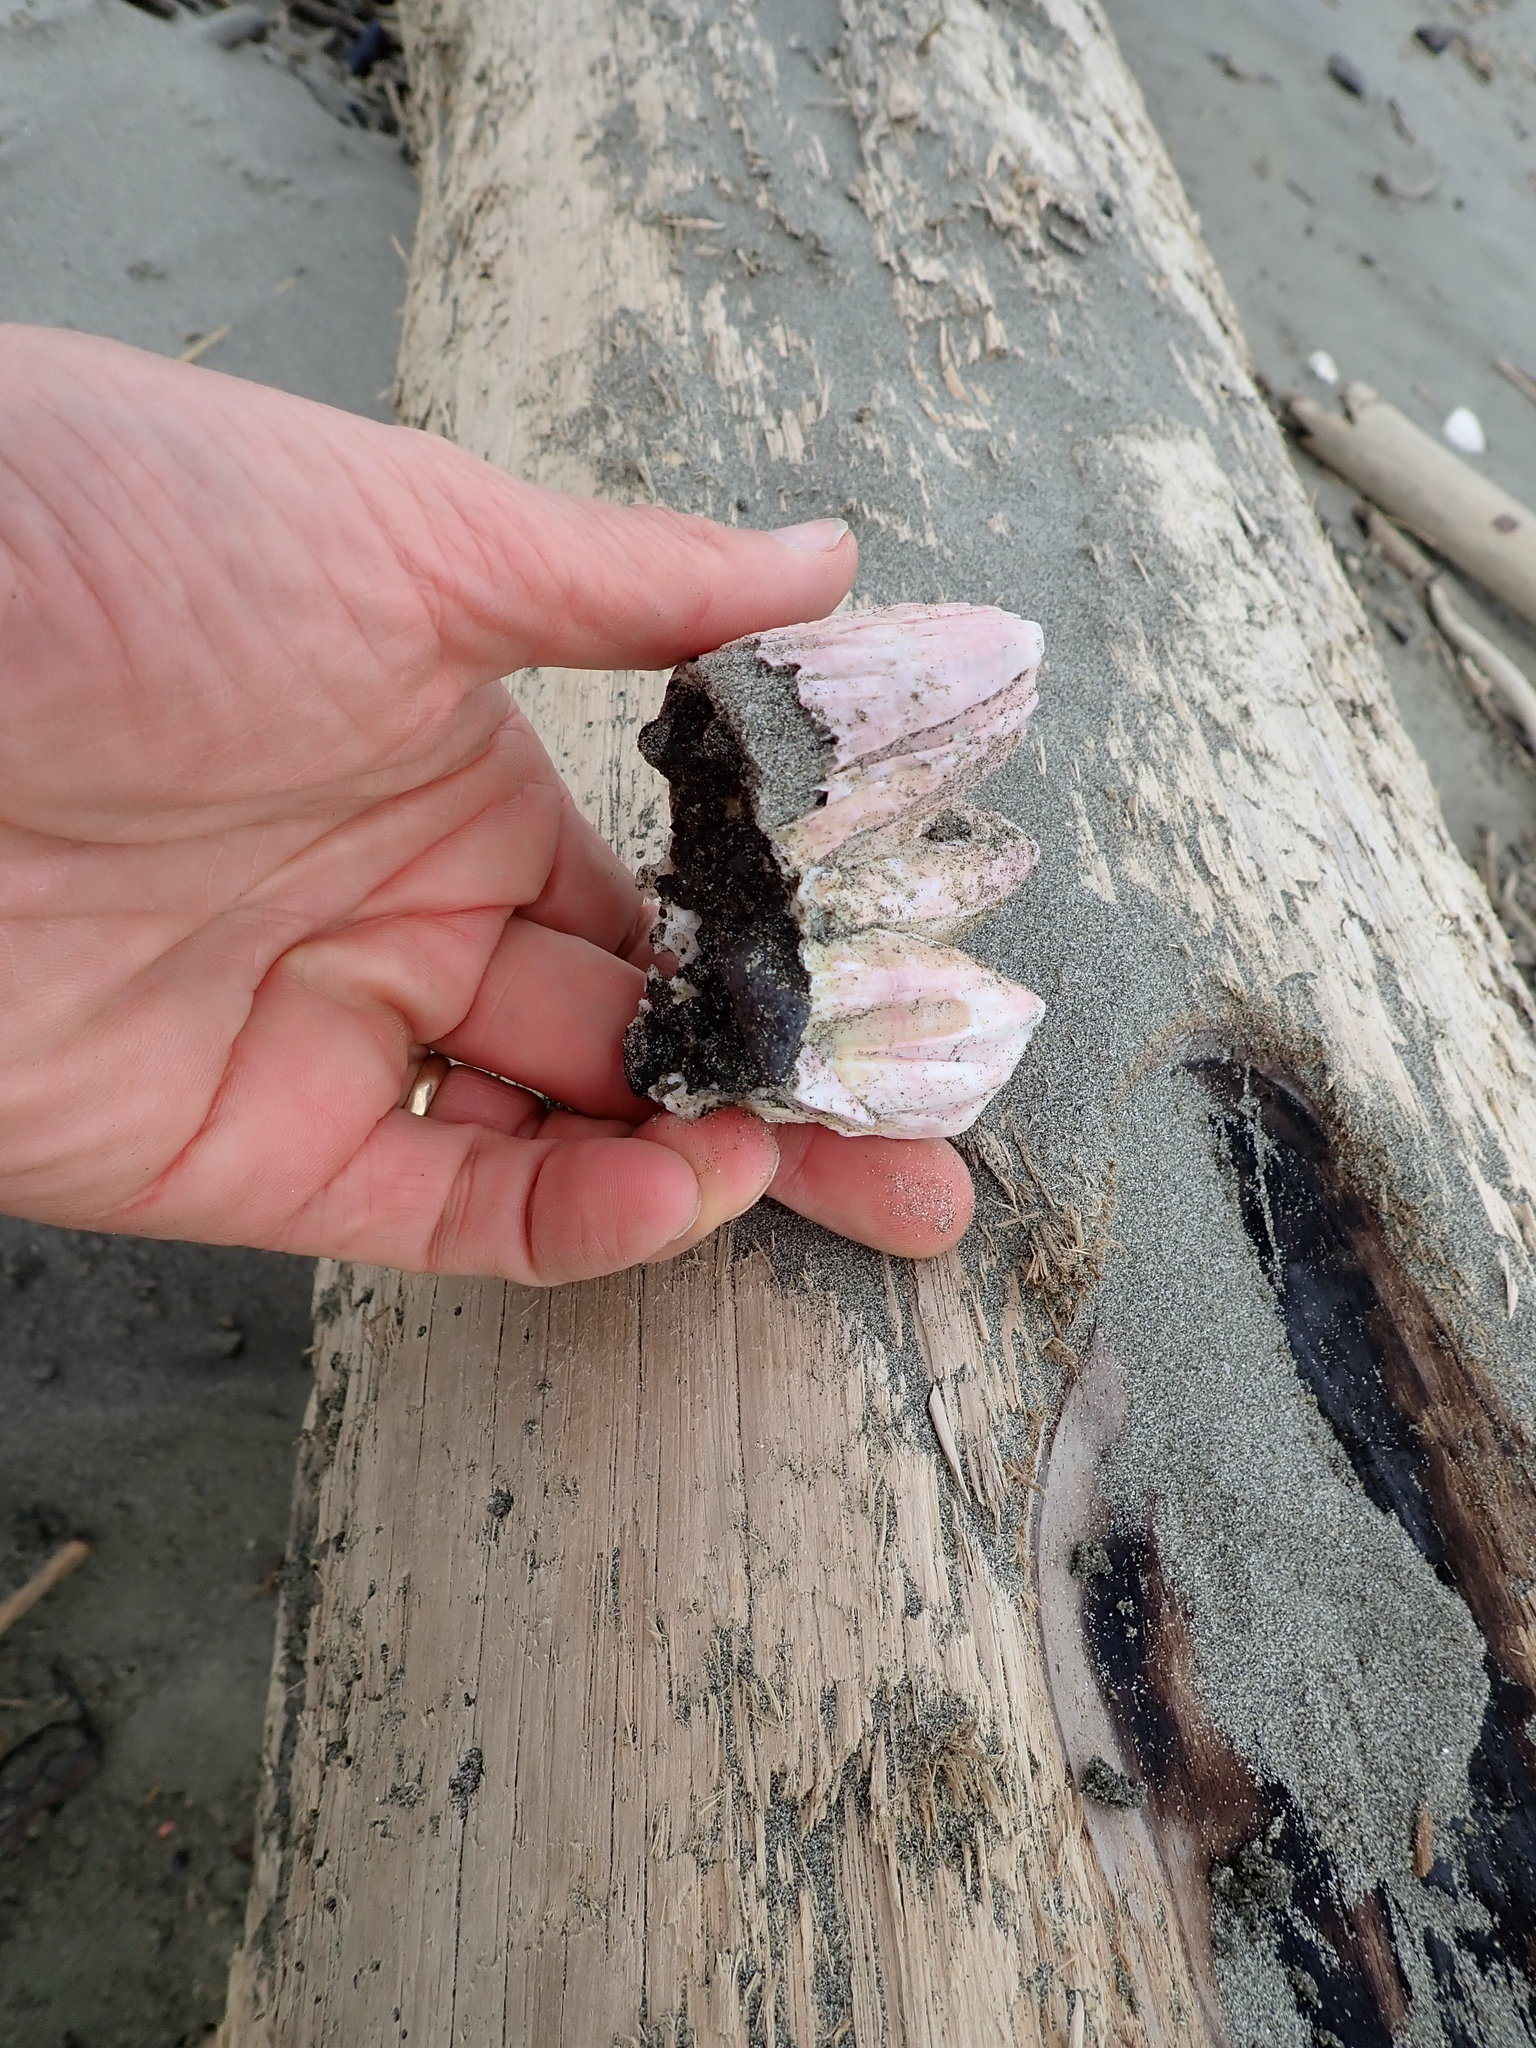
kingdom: Animalia
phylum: Arthropoda
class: Maxillopoda
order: Sessilia
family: Balanidae
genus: Notomegabalanus
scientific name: Notomegabalanus decorus
